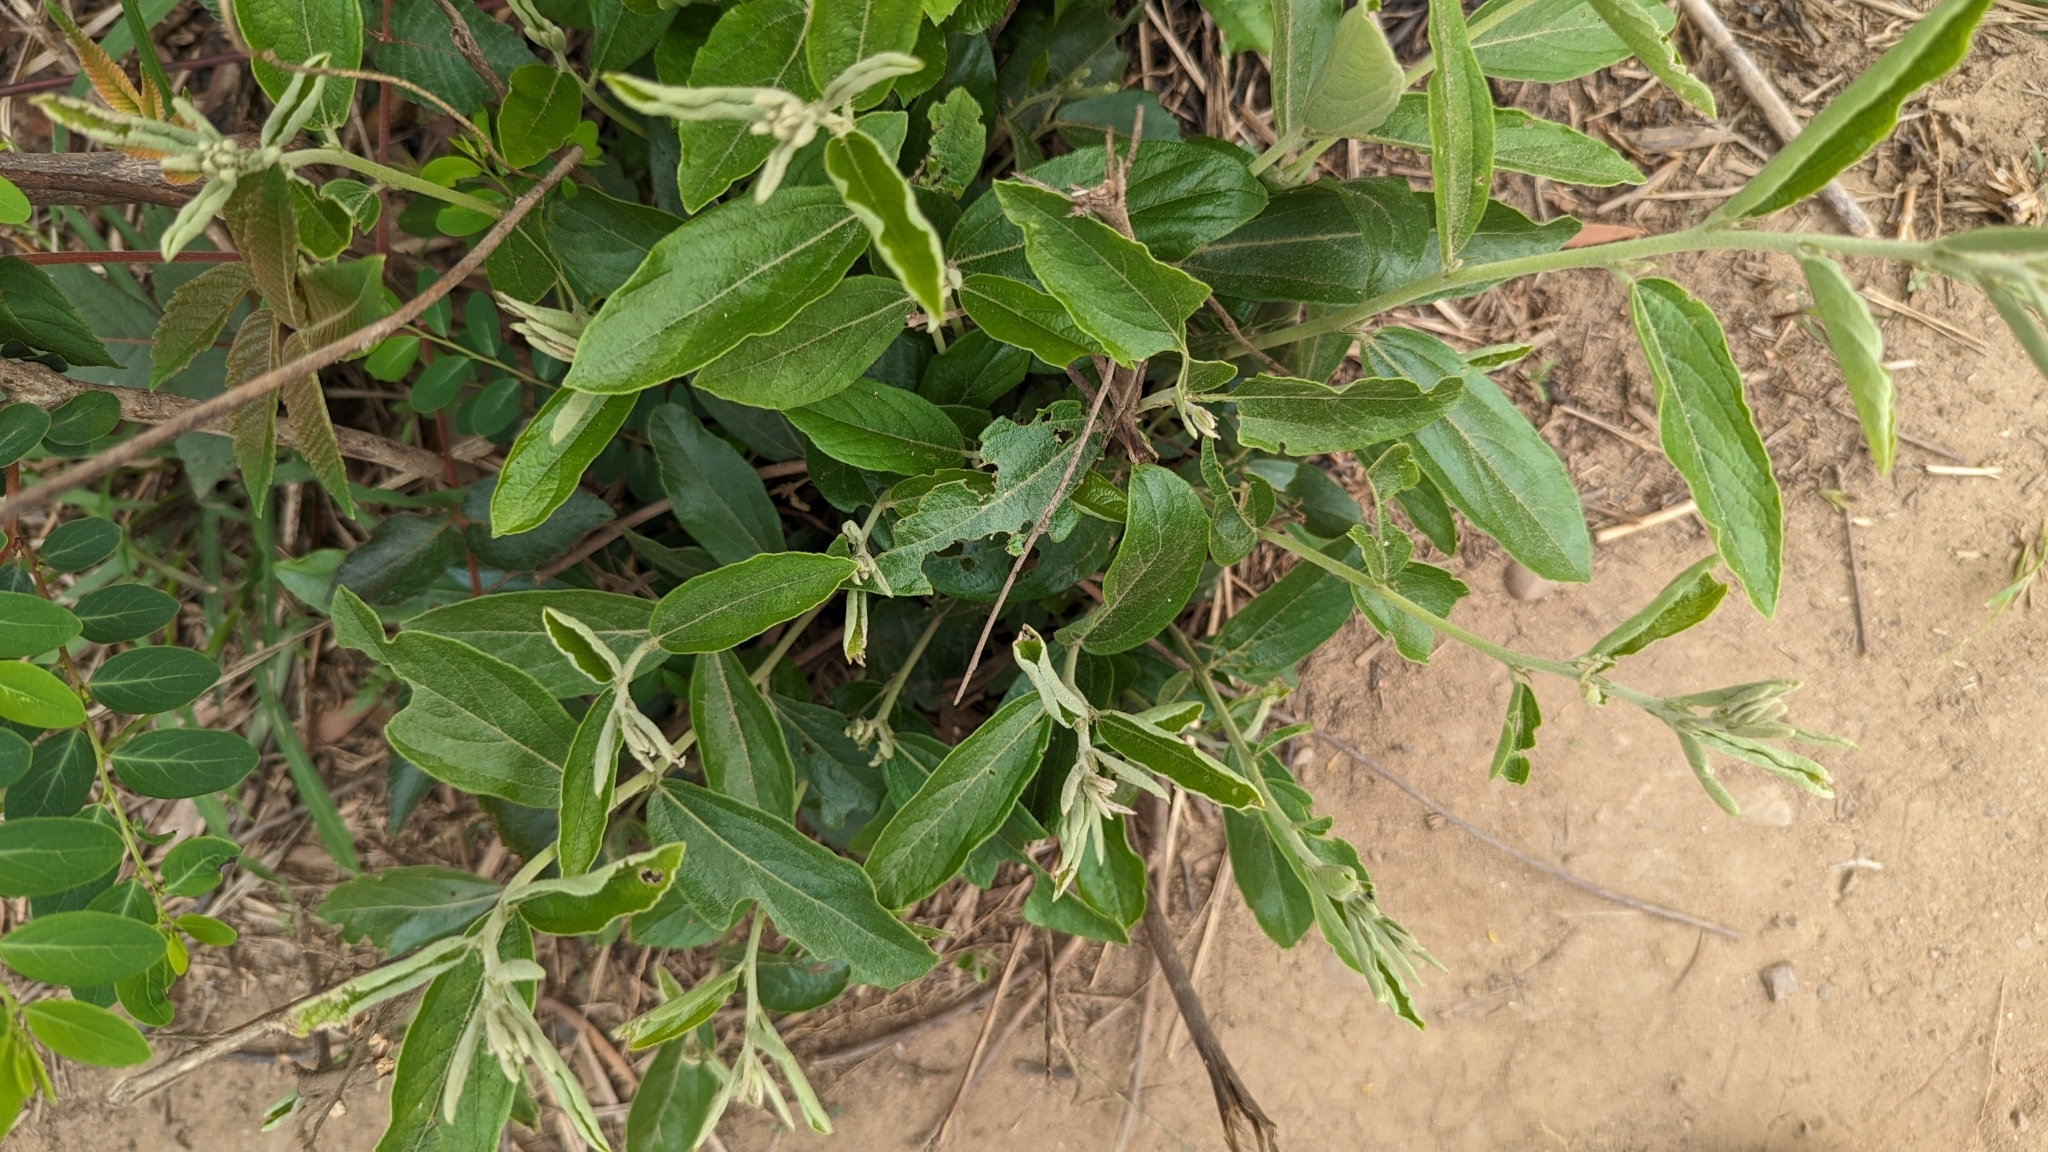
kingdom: Plantae
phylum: Tracheophyta
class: Magnoliopsida
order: Malvales
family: Malvaceae
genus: Helicteres
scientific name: Helicteres angustifolia
